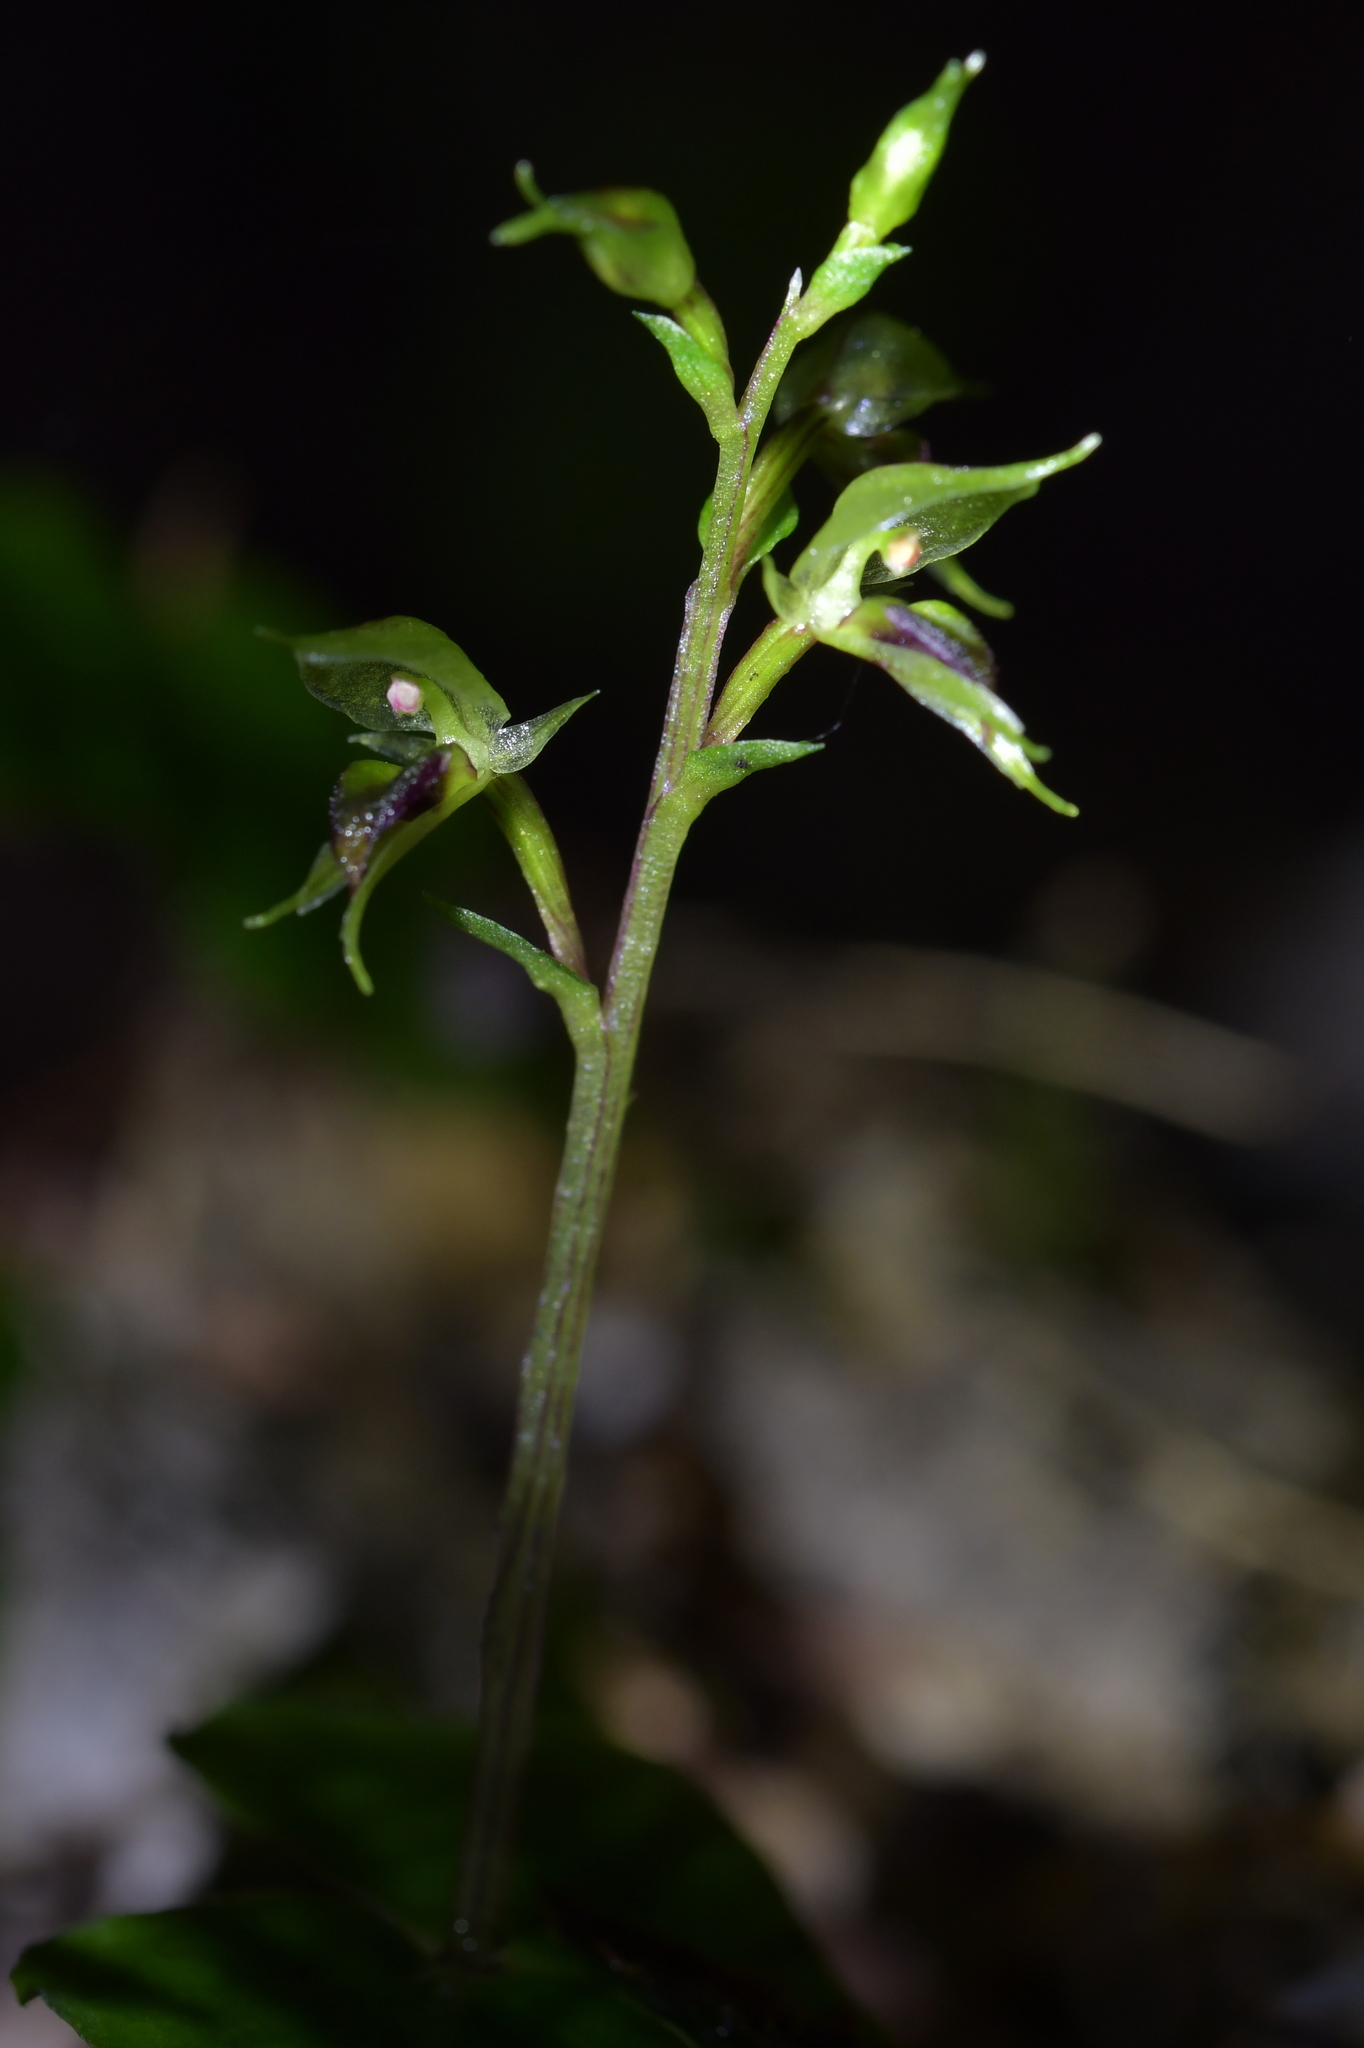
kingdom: Plantae
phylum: Tracheophyta
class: Liliopsida
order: Asparagales
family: Orchidaceae
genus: Acianthus
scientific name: Acianthus sinclairii
